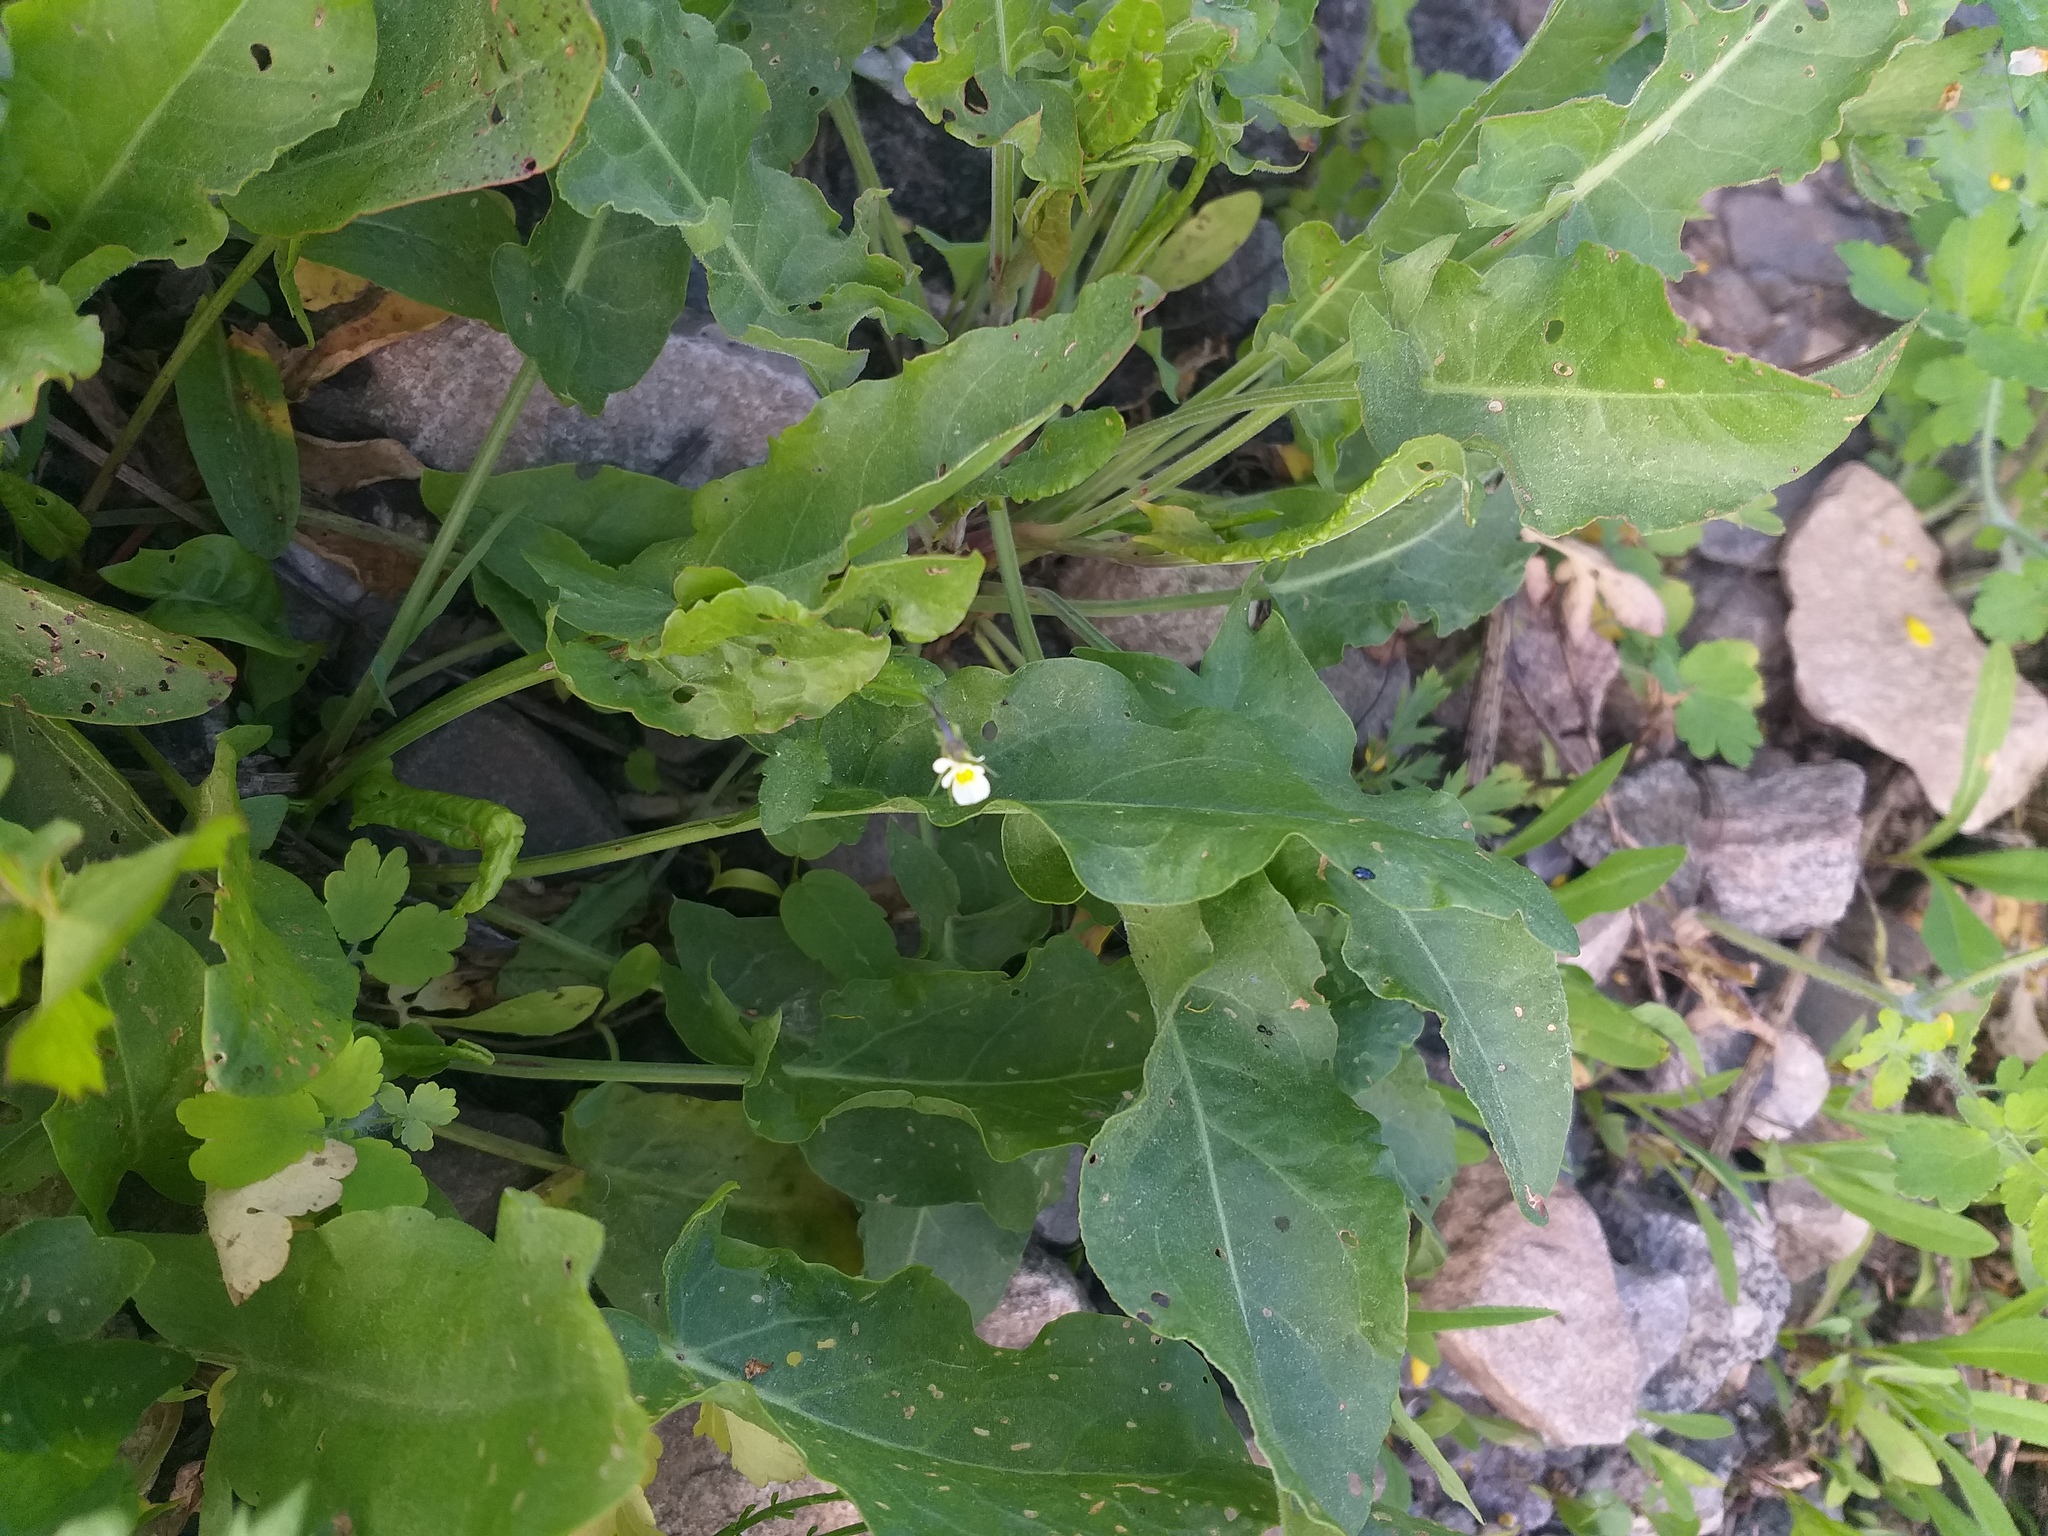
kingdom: Plantae
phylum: Tracheophyta
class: Magnoliopsida
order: Malpighiales
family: Violaceae
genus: Viola
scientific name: Viola arvensis
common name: Field pansy
